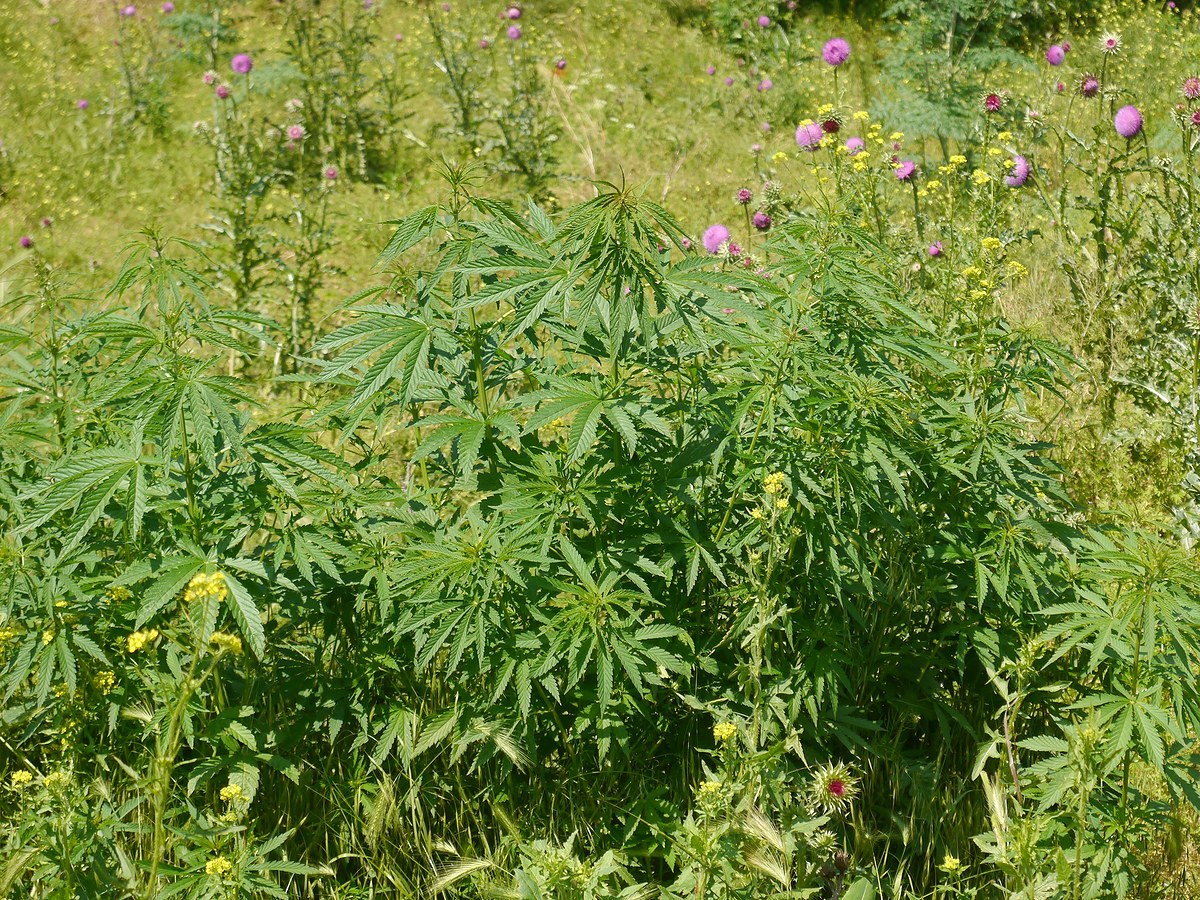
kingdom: Plantae
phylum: Tracheophyta
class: Magnoliopsida
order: Rosales
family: Cannabaceae
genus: Cannabis
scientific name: Cannabis sativa
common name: Hemp
